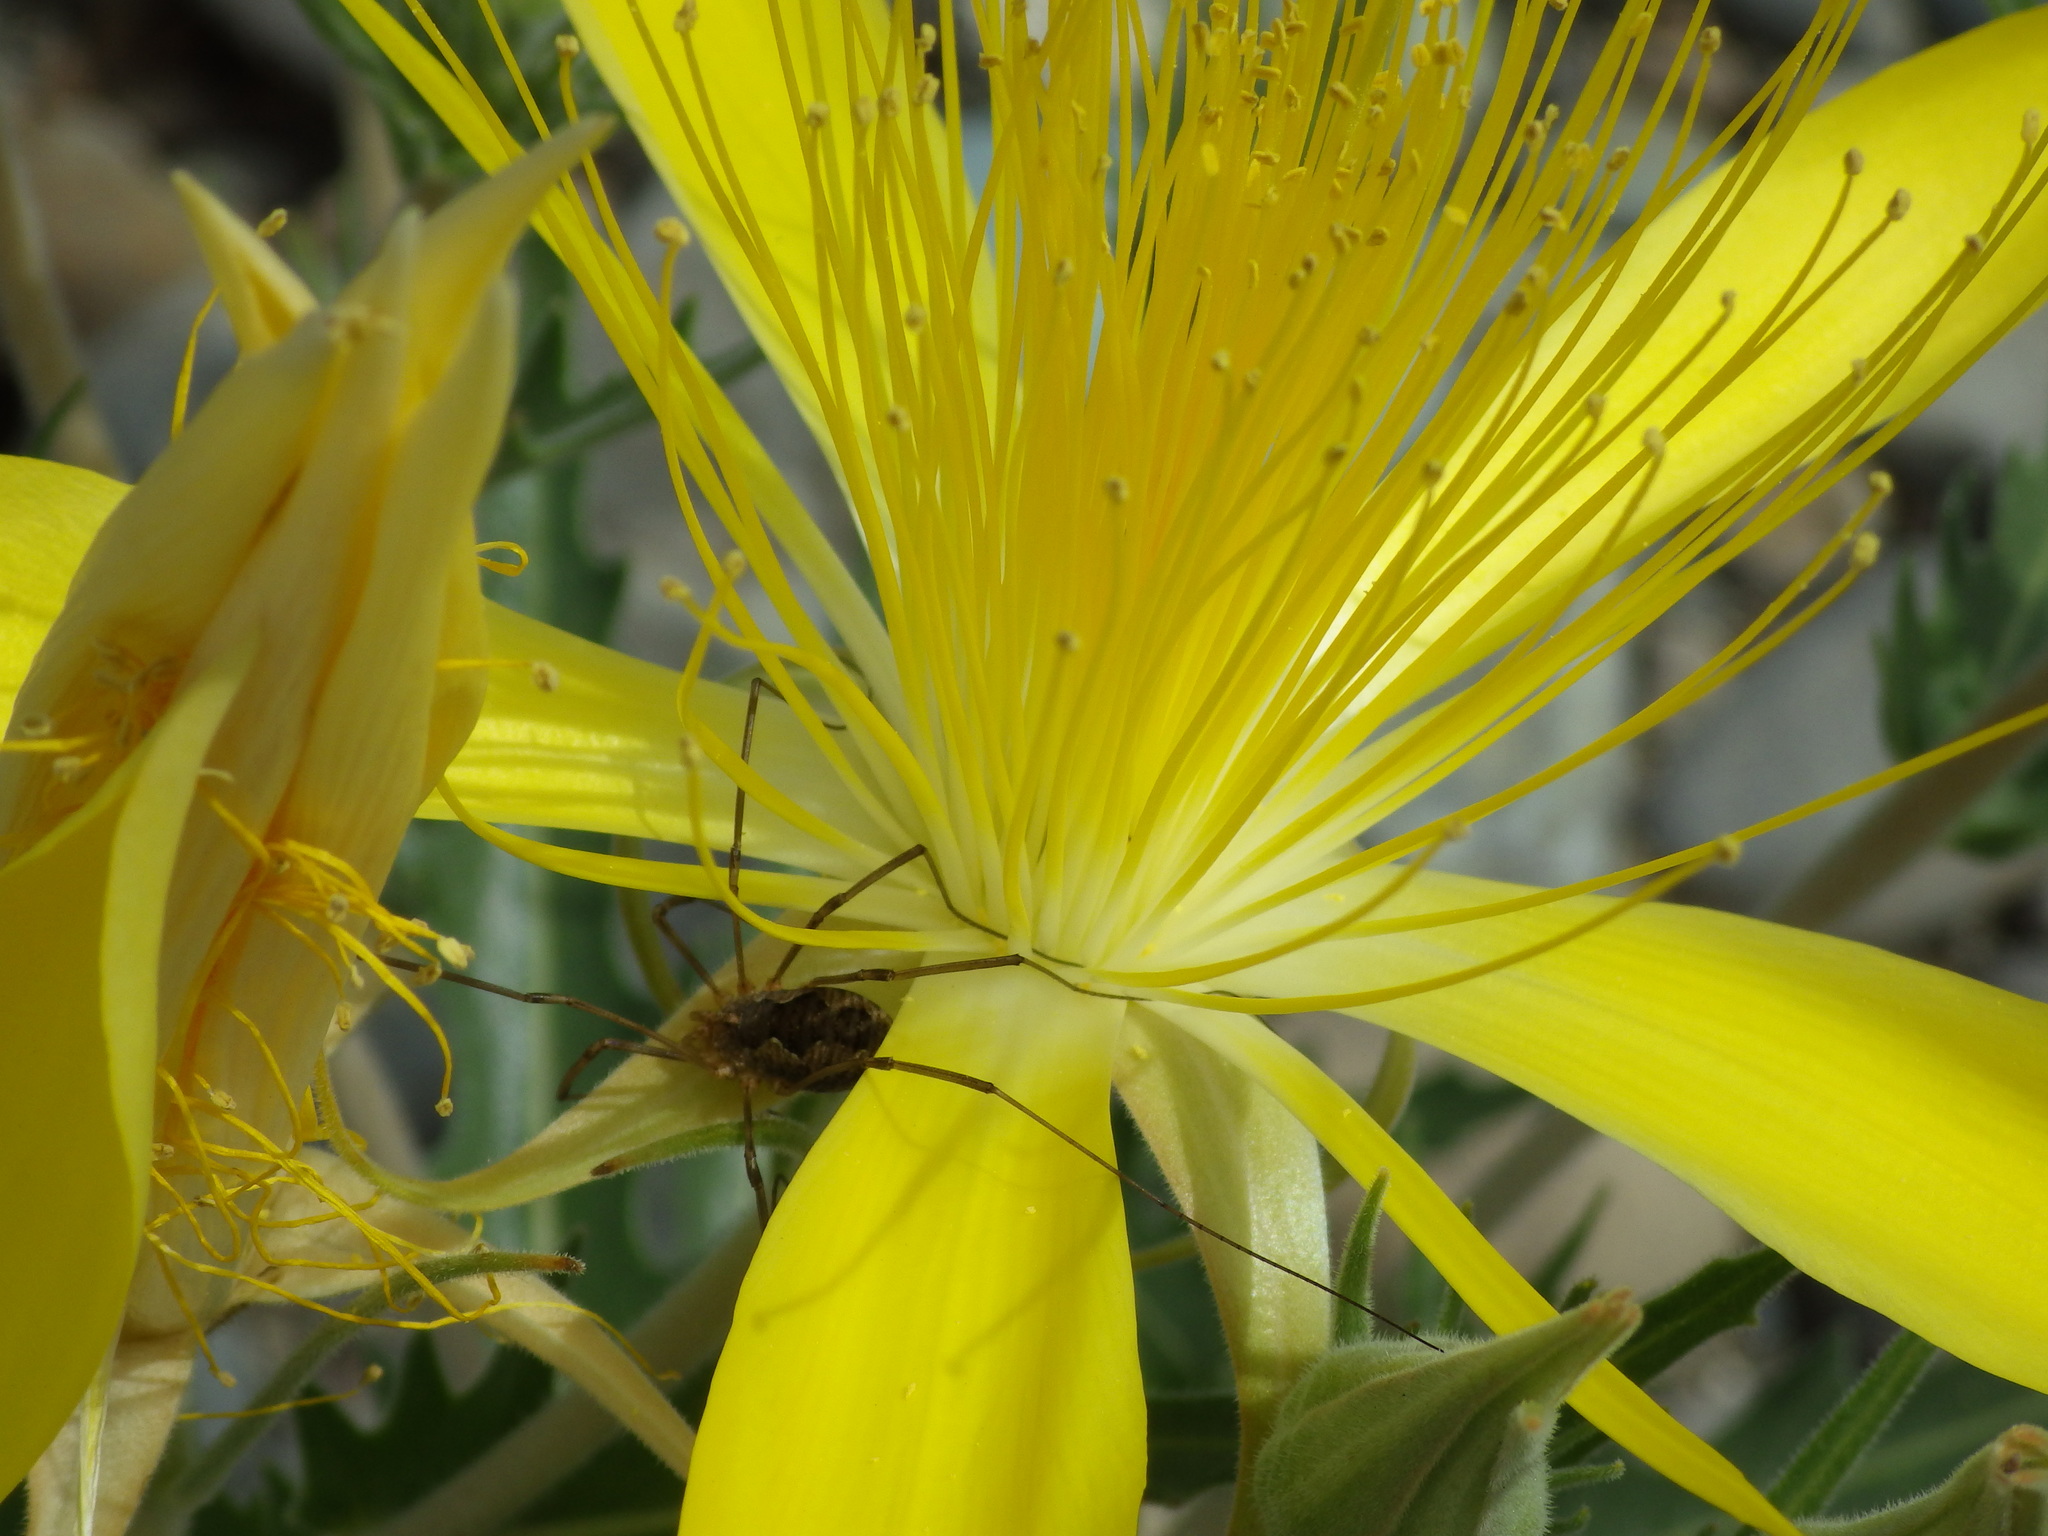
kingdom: Plantae
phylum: Tracheophyta
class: Magnoliopsida
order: Cornales
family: Loasaceae
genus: Mentzelia
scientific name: Mentzelia laevicaulis
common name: Smooth-stem blazingstar
